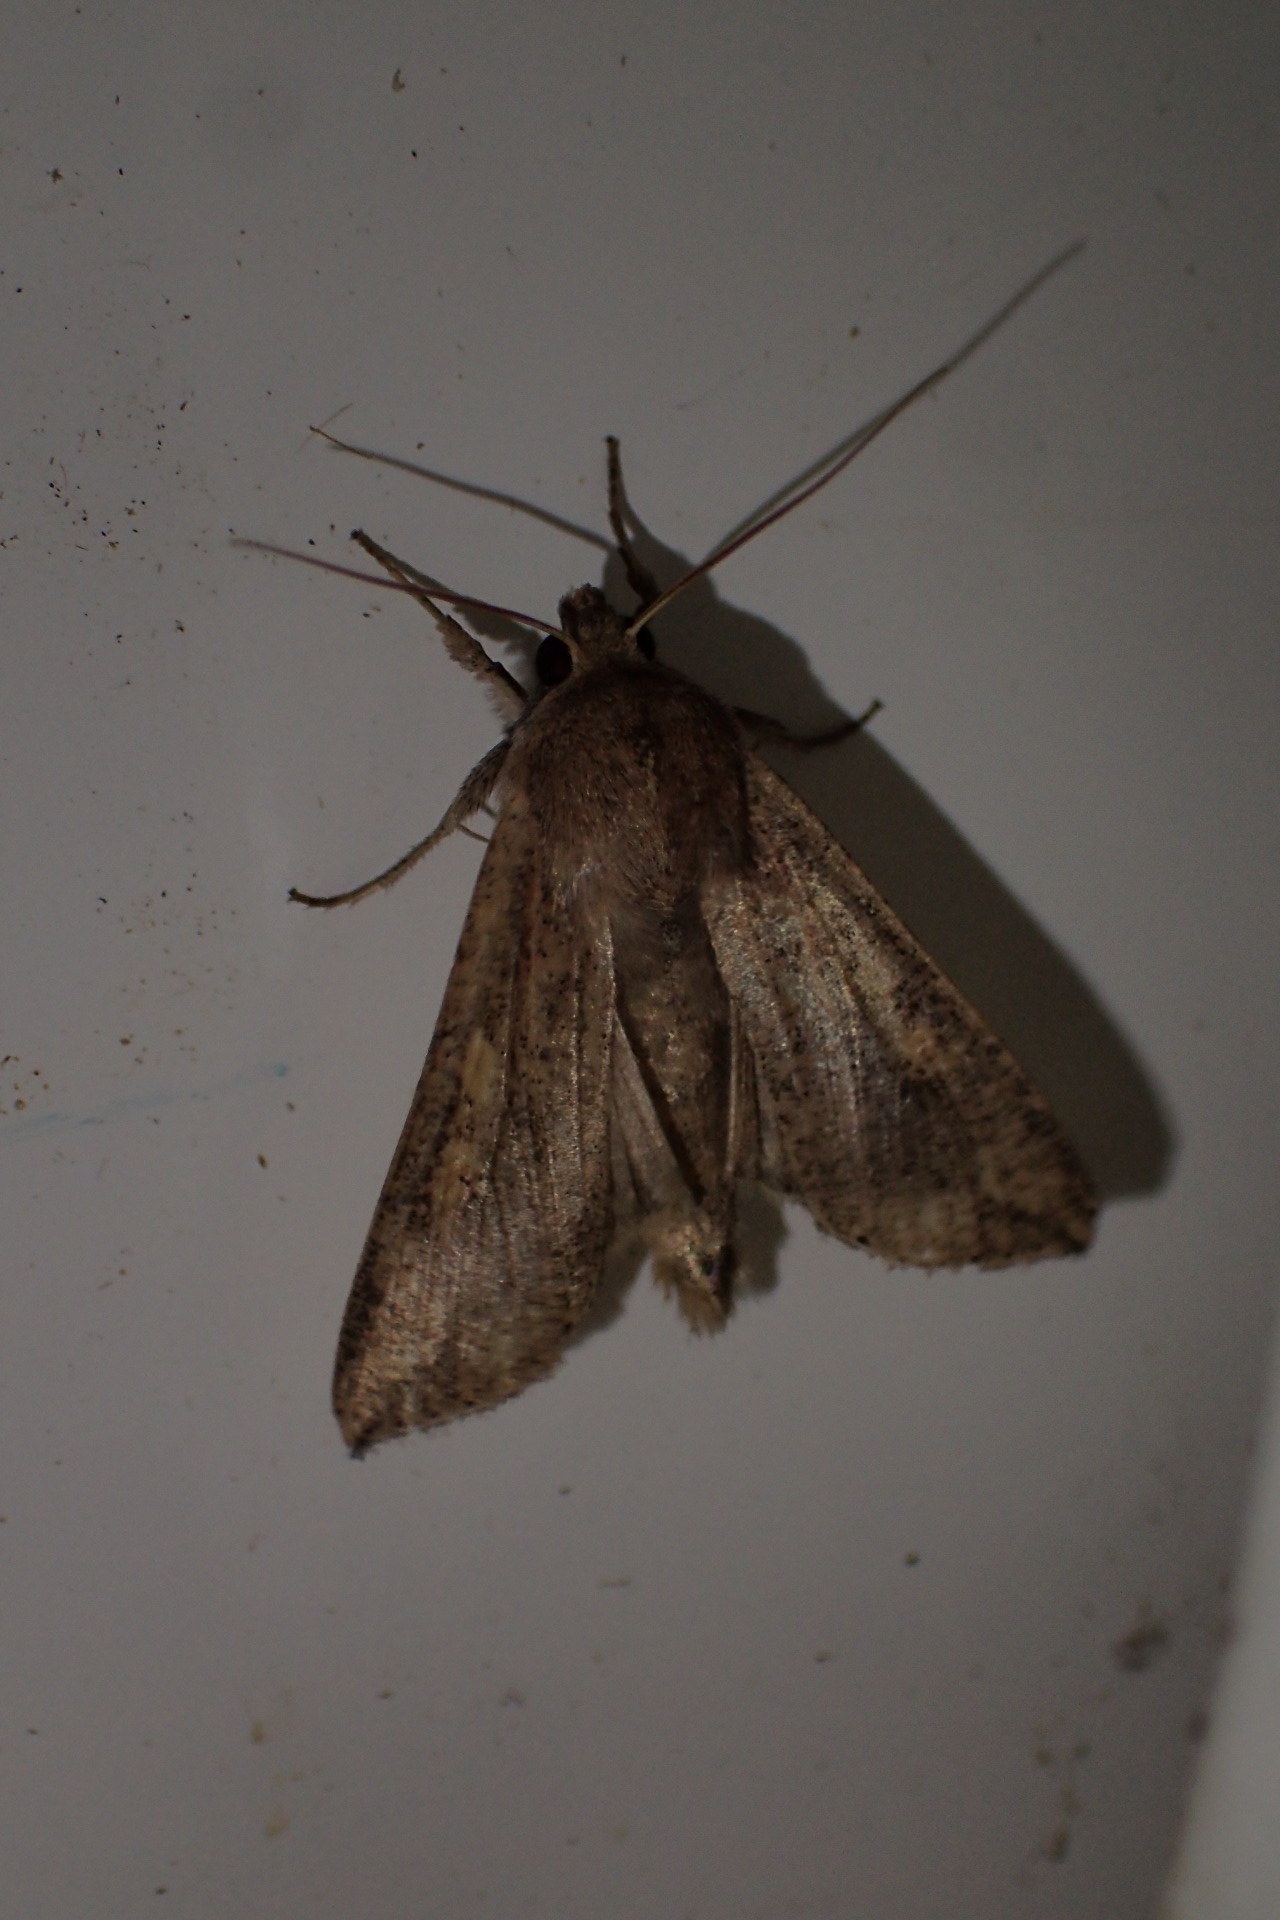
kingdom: Animalia
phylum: Arthropoda
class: Insecta
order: Lepidoptera
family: Noctuidae
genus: Mythimna
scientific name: Mythimna separata
